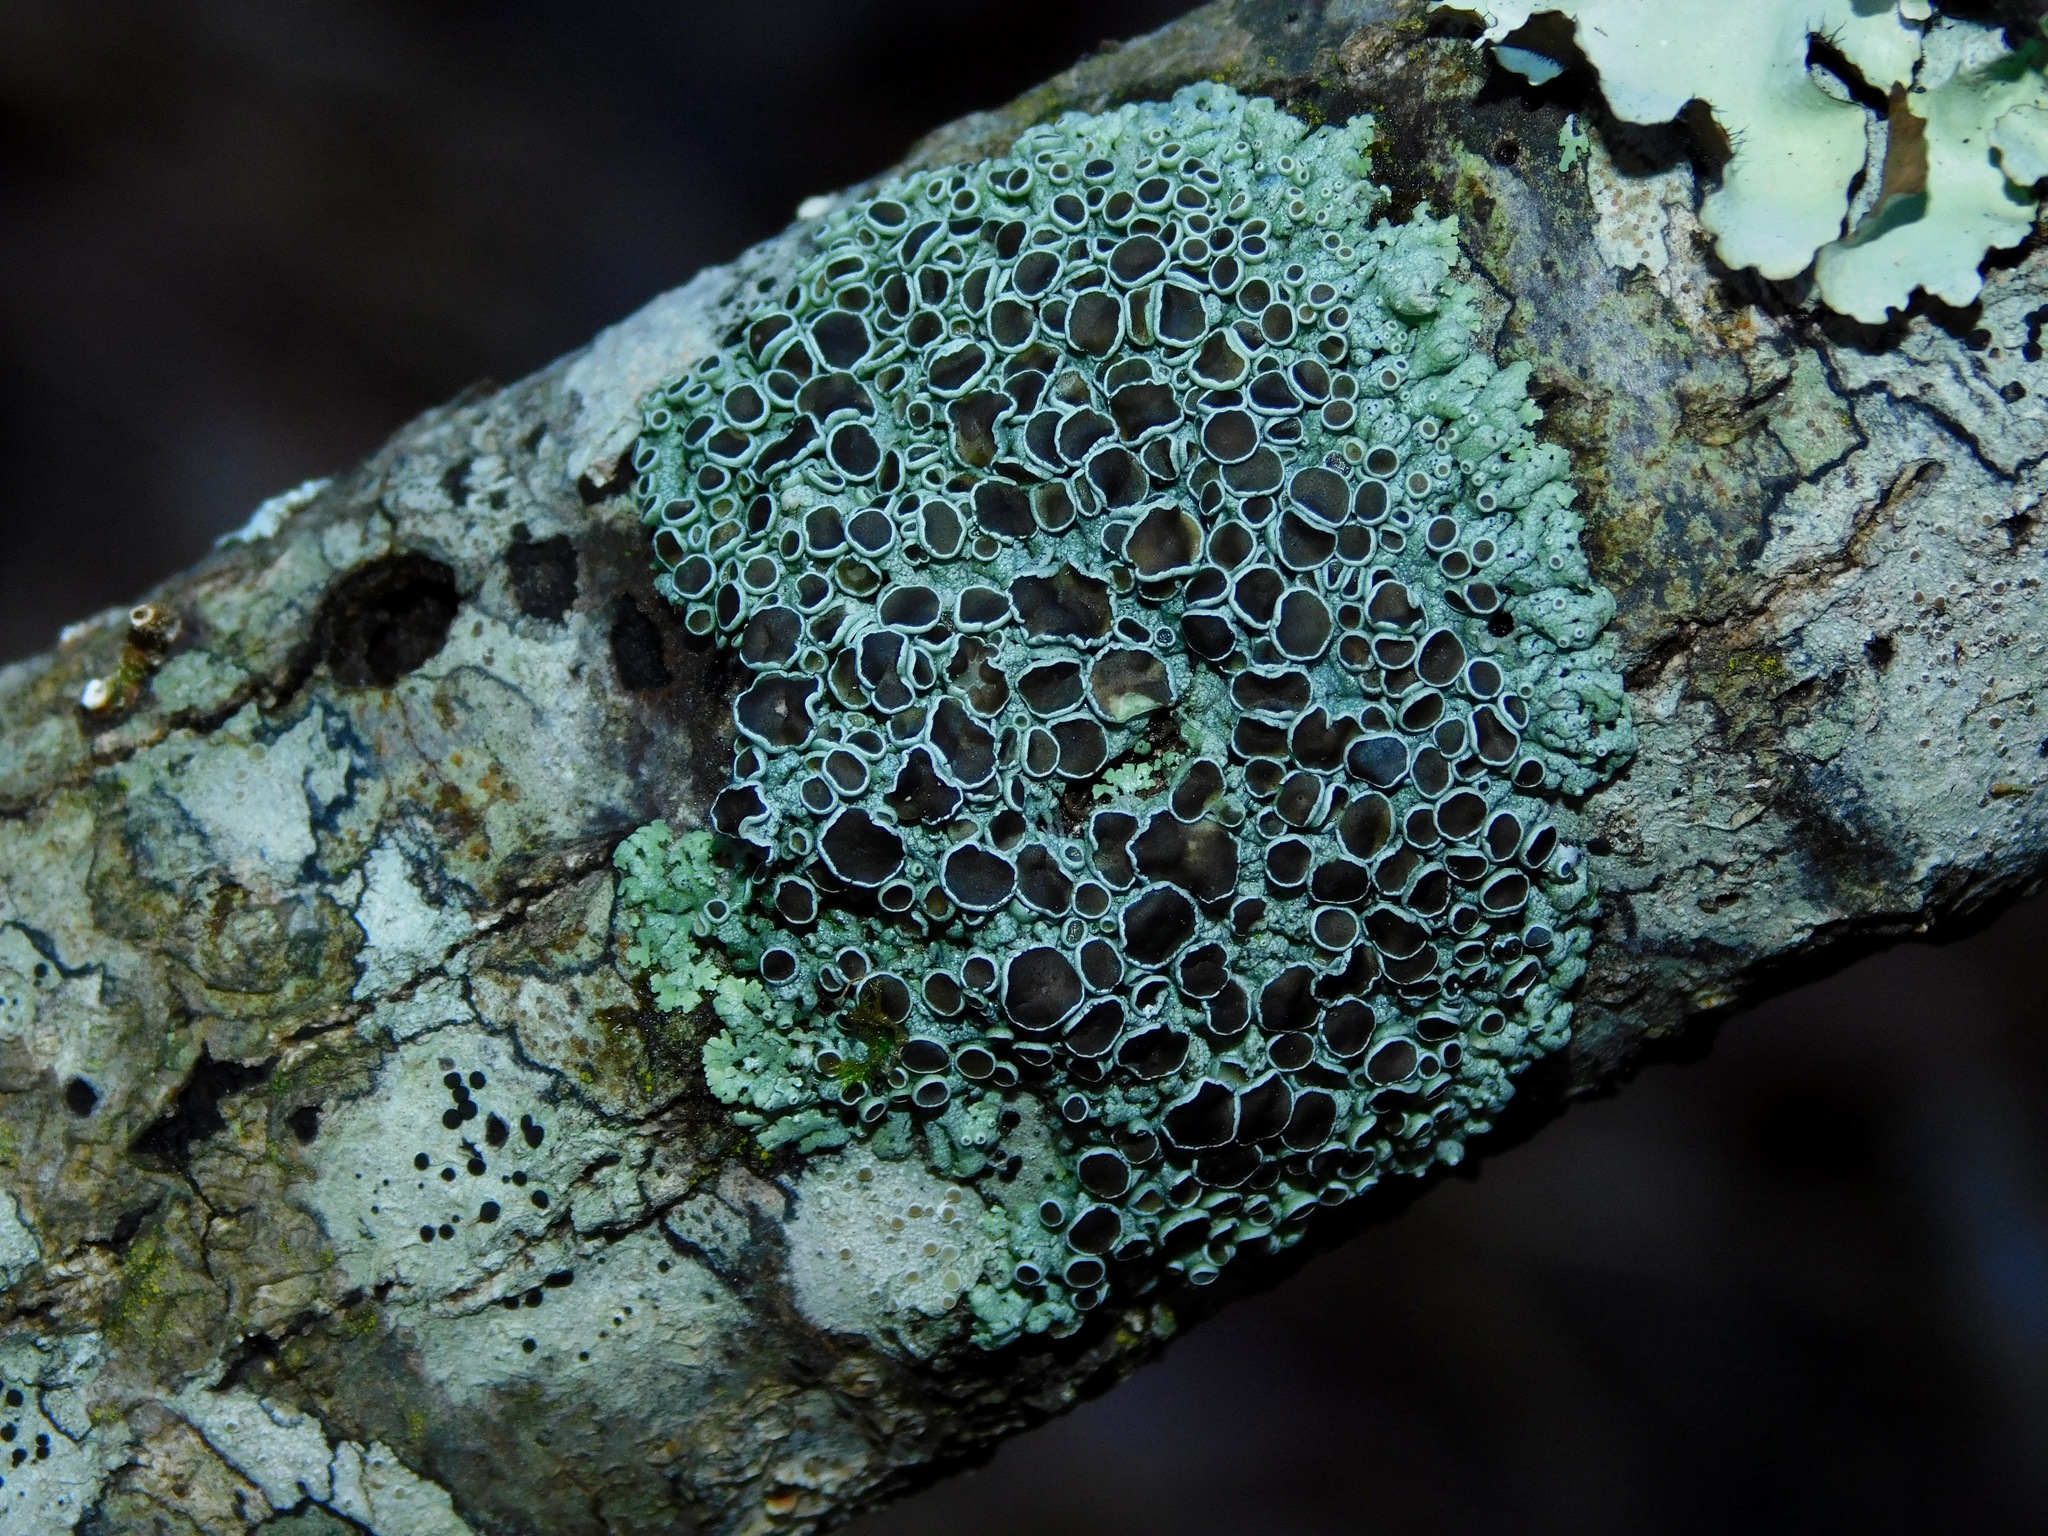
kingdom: Fungi
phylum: Ascomycota
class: Lecanoromycetes
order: Caliciales
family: Physciaceae
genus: Physcia
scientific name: Physcia stellaris
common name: Star rosette lichen
